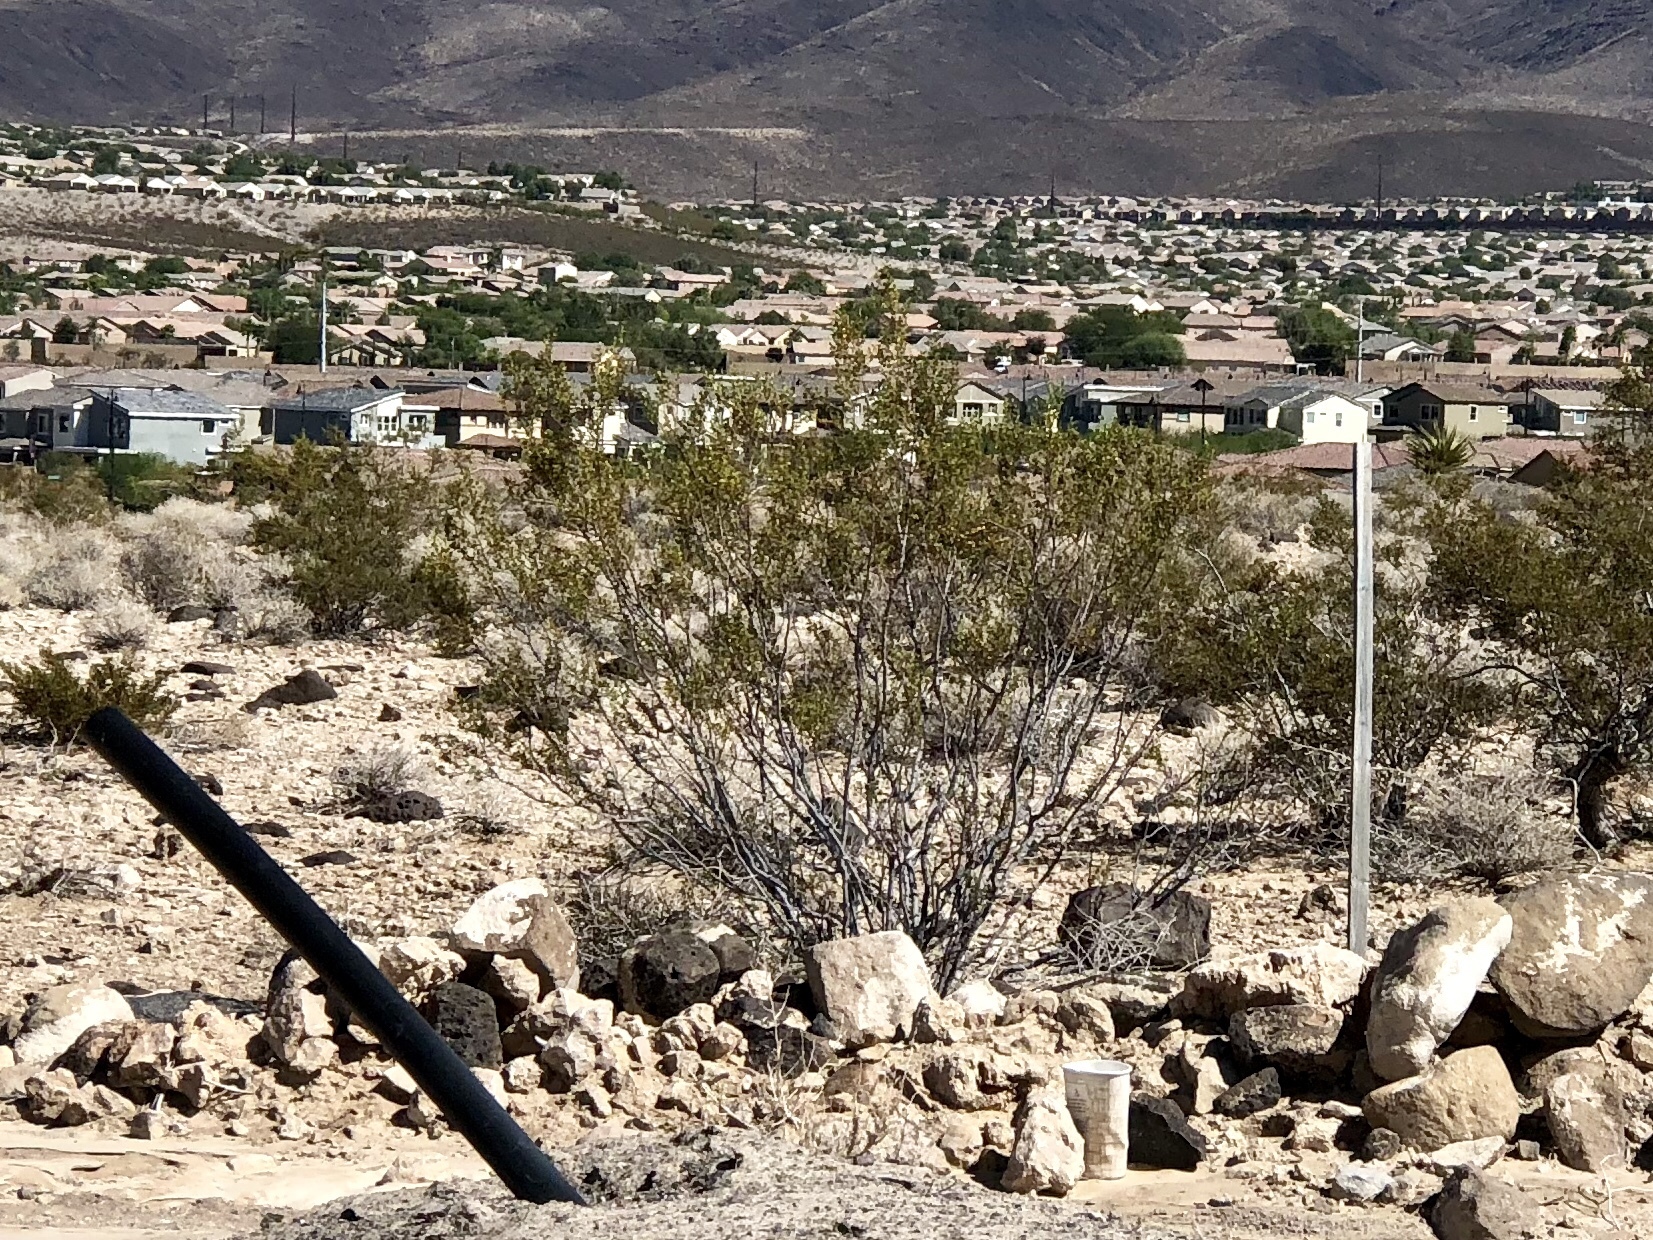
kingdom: Plantae
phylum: Tracheophyta
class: Magnoliopsida
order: Zygophyllales
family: Zygophyllaceae
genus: Larrea
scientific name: Larrea tridentata
